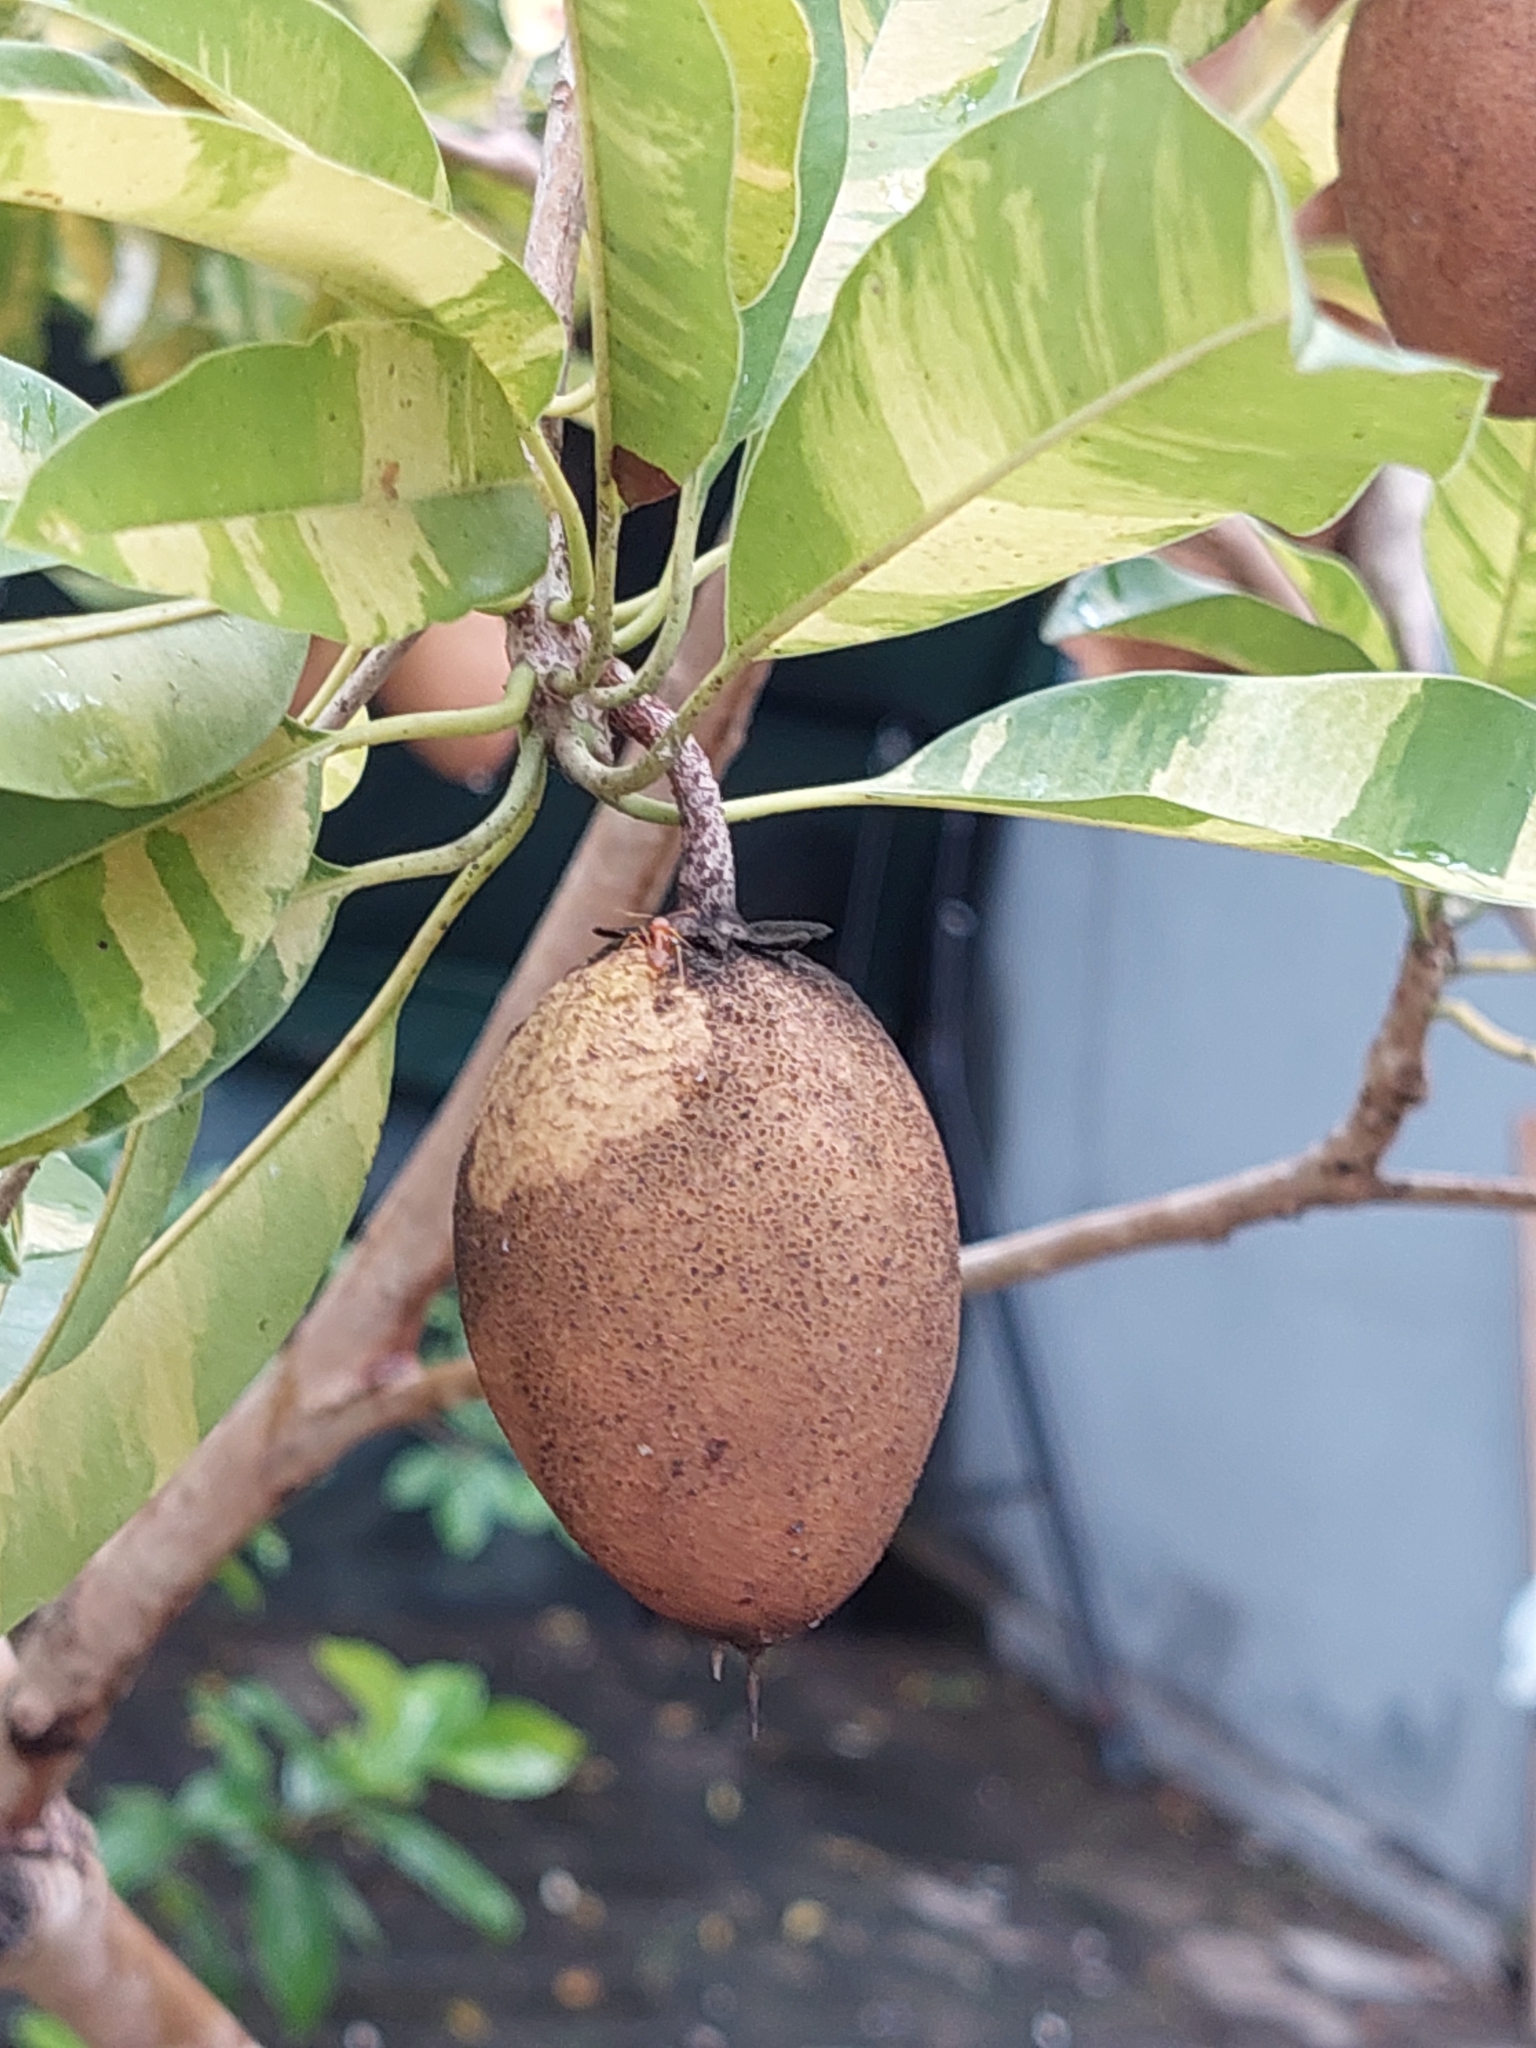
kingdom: Plantae
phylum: Tracheophyta
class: Magnoliopsida
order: Ericales
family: Sapotaceae
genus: Manilkara
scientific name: Manilkara zapota
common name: Sapodilla
